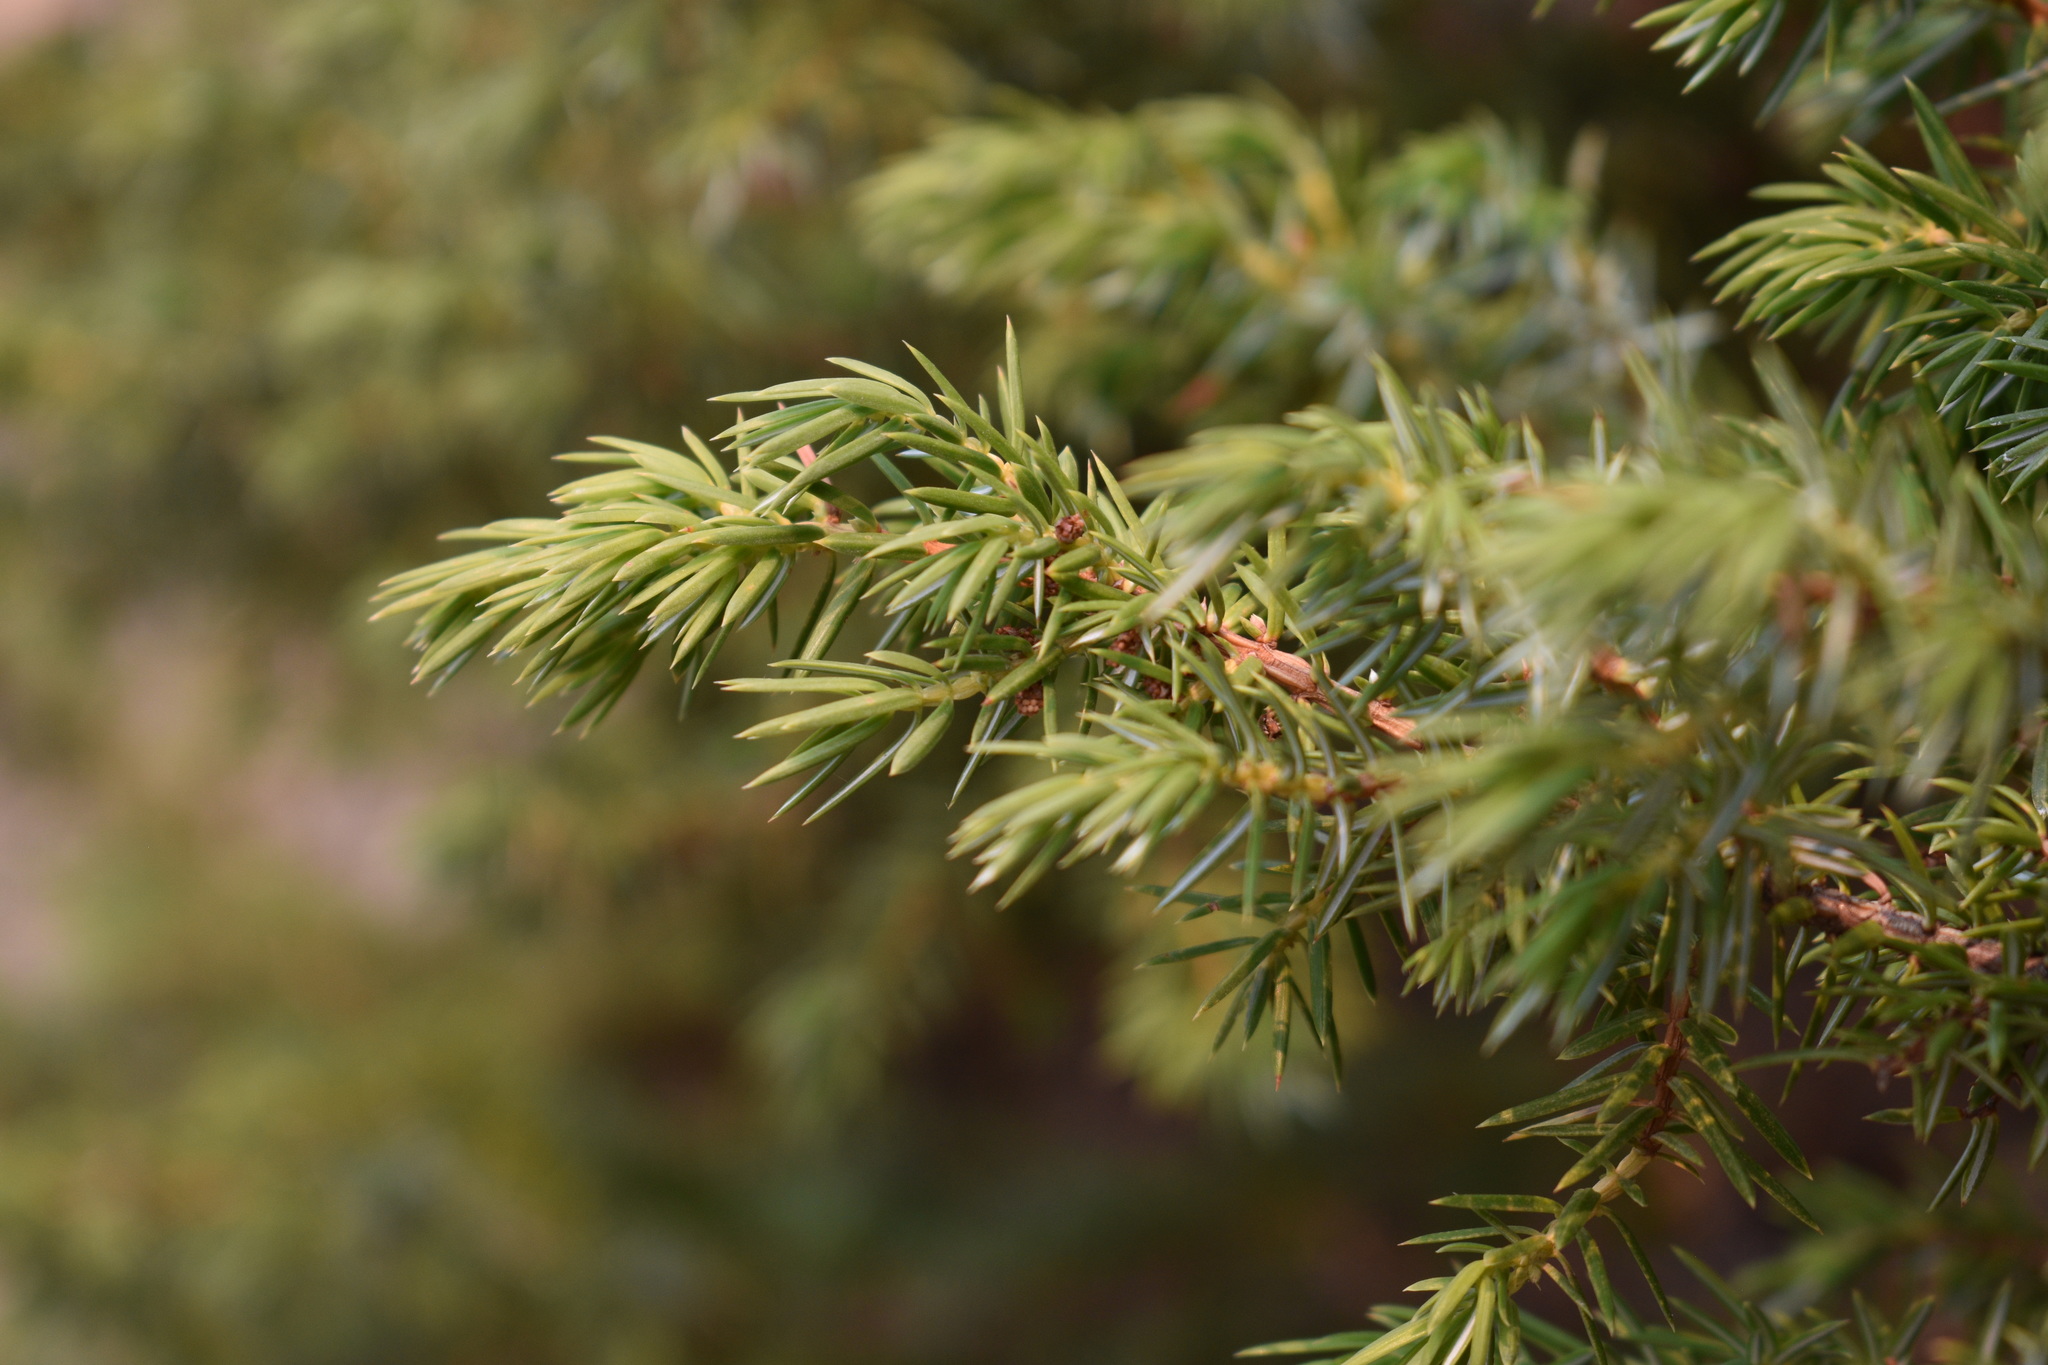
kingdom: Plantae
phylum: Tracheophyta
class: Pinopsida
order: Pinales
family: Cupressaceae
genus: Juniperus
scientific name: Juniperus communis
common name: Common juniper
